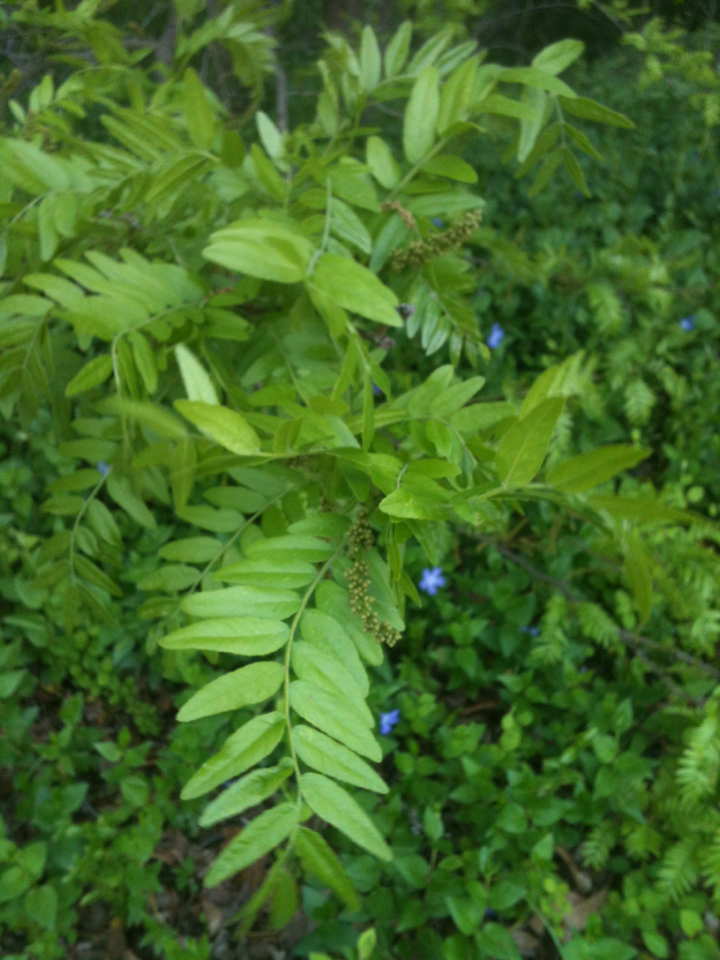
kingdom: Plantae
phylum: Tracheophyta
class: Magnoliopsida
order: Fabales
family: Fabaceae
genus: Gleditsia
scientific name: Gleditsia triacanthos
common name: Common honeylocust
